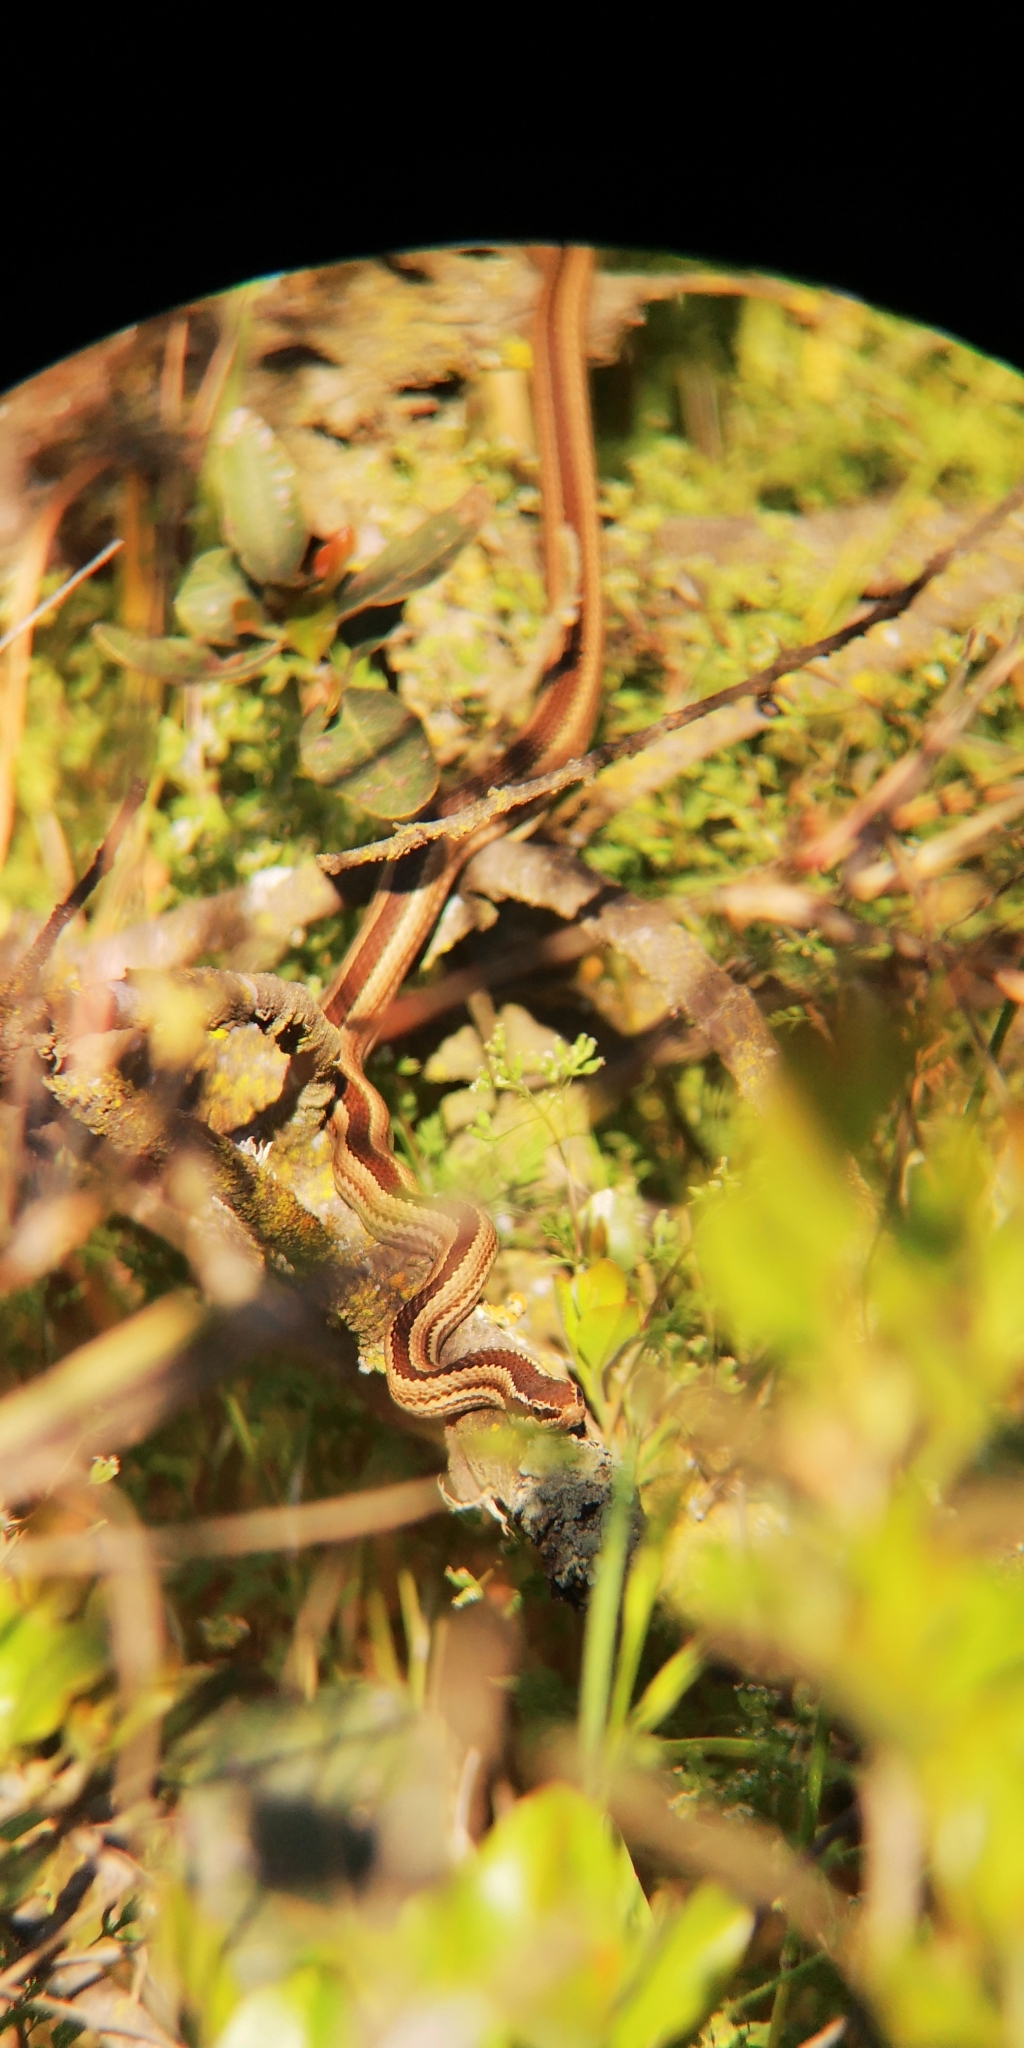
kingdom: Animalia
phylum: Chordata
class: Squamata
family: Colubridae
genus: Philodryas
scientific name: Philodryas chamissonis
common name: Chilean green racer
